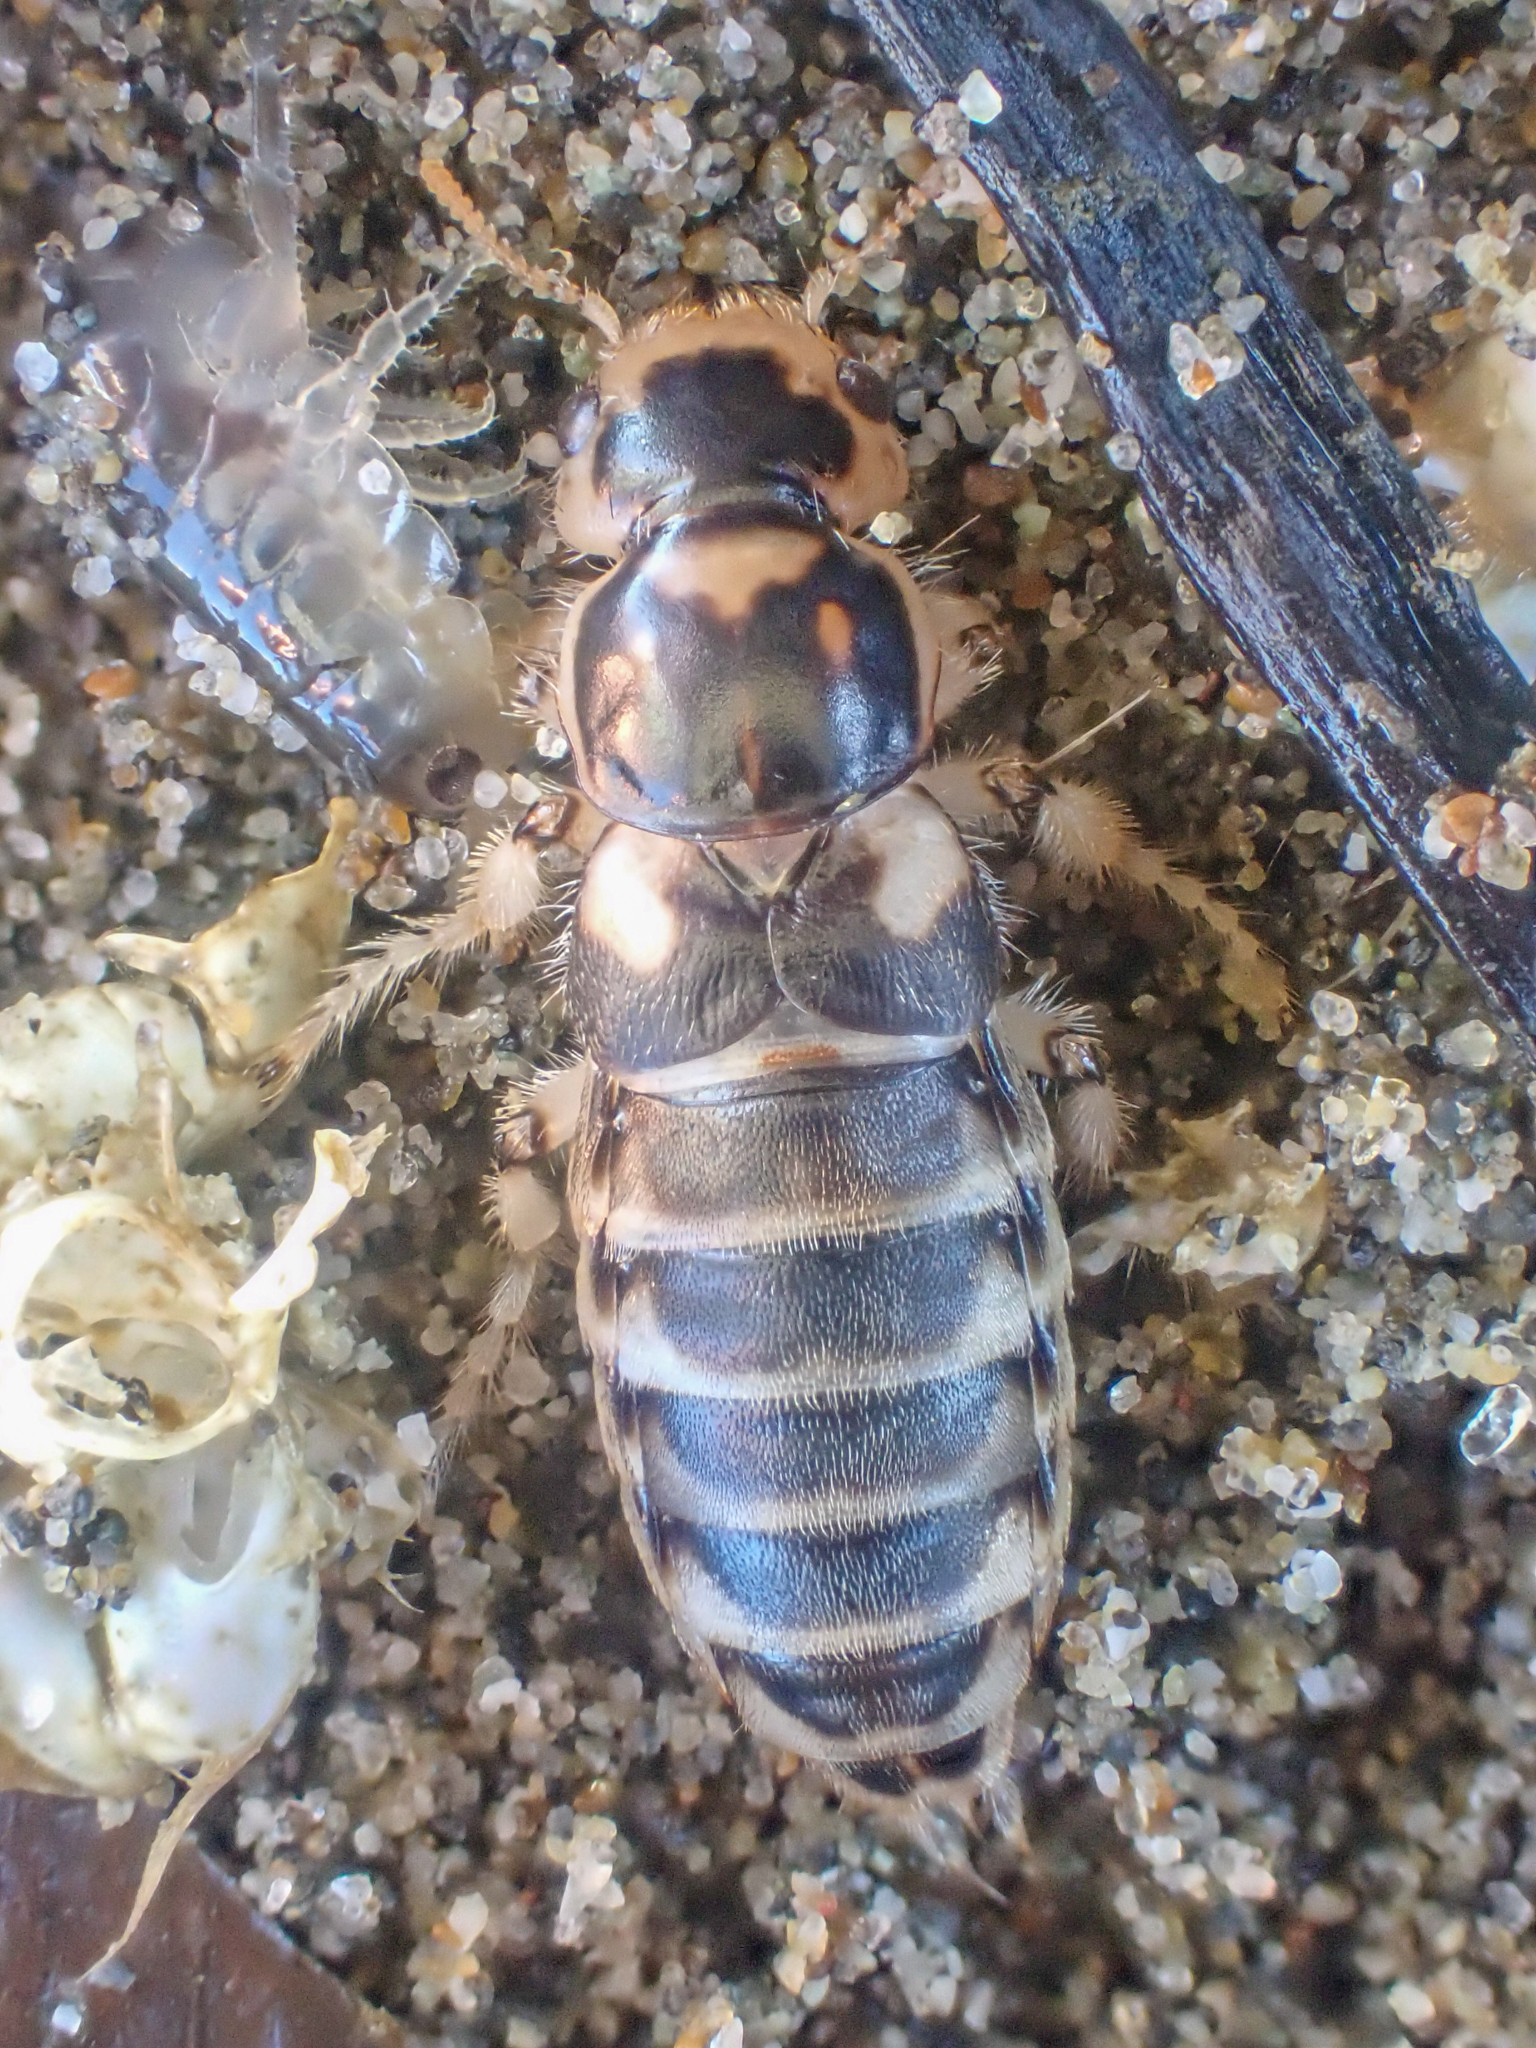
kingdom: Animalia
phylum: Arthropoda
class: Insecta
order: Coleoptera
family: Staphylinidae
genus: Thinopinus
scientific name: Thinopinus pictus
